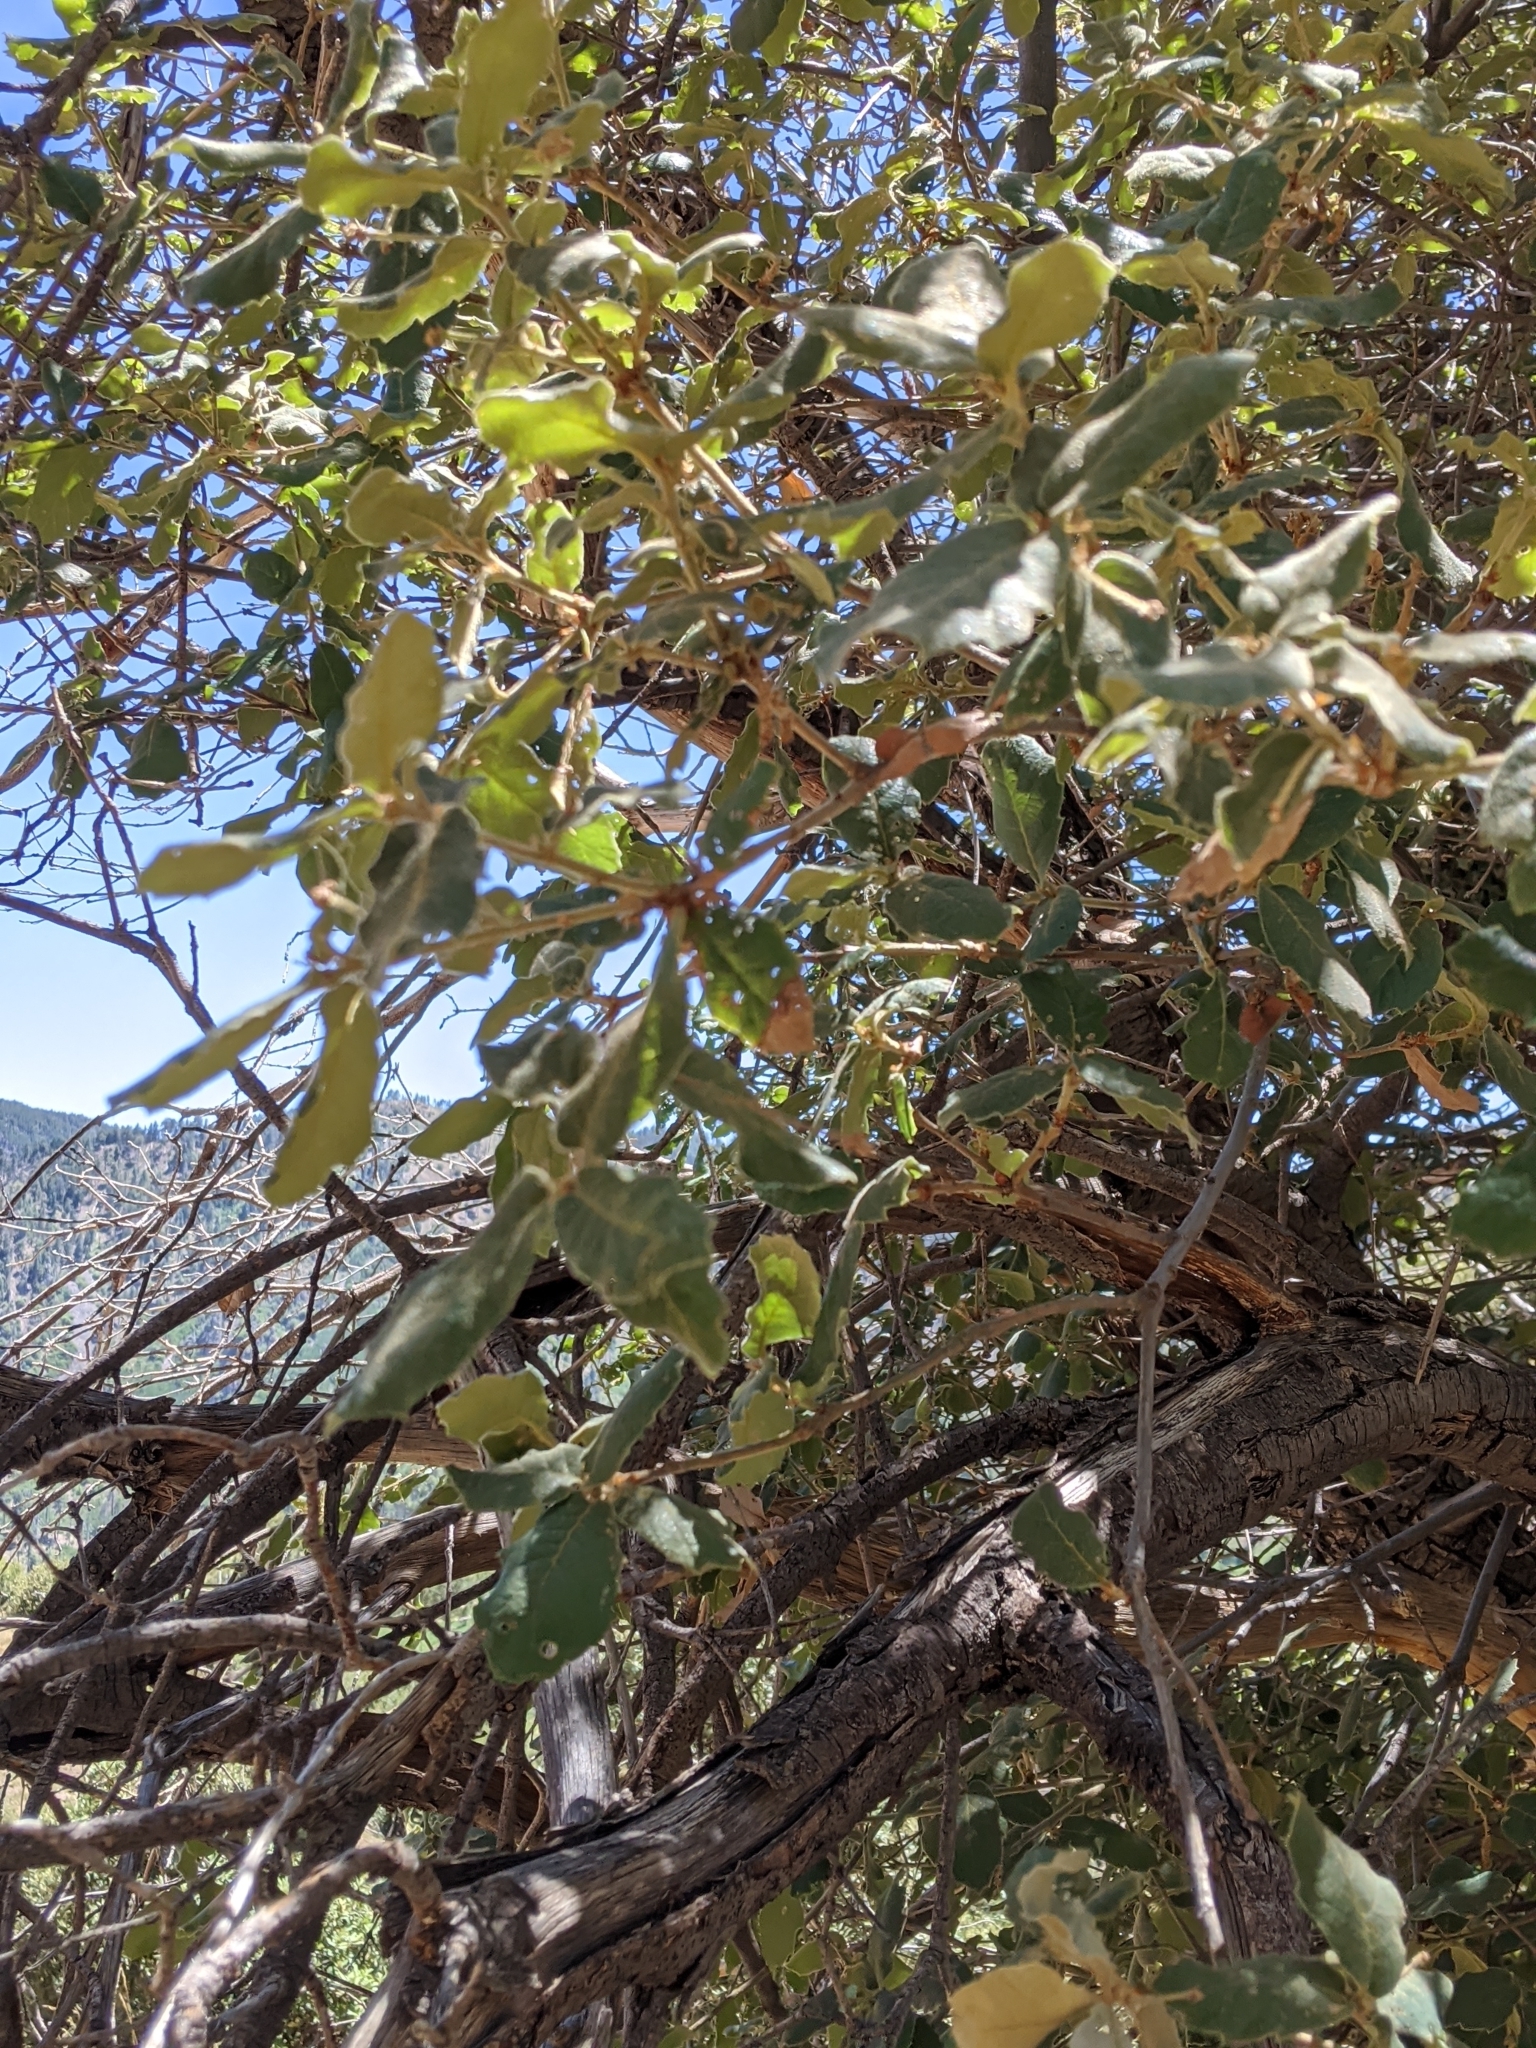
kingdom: Plantae
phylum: Tracheophyta
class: Magnoliopsida
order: Fagales
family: Fagaceae
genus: Quercus
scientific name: Quercus arizonica
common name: Arizona white oak
